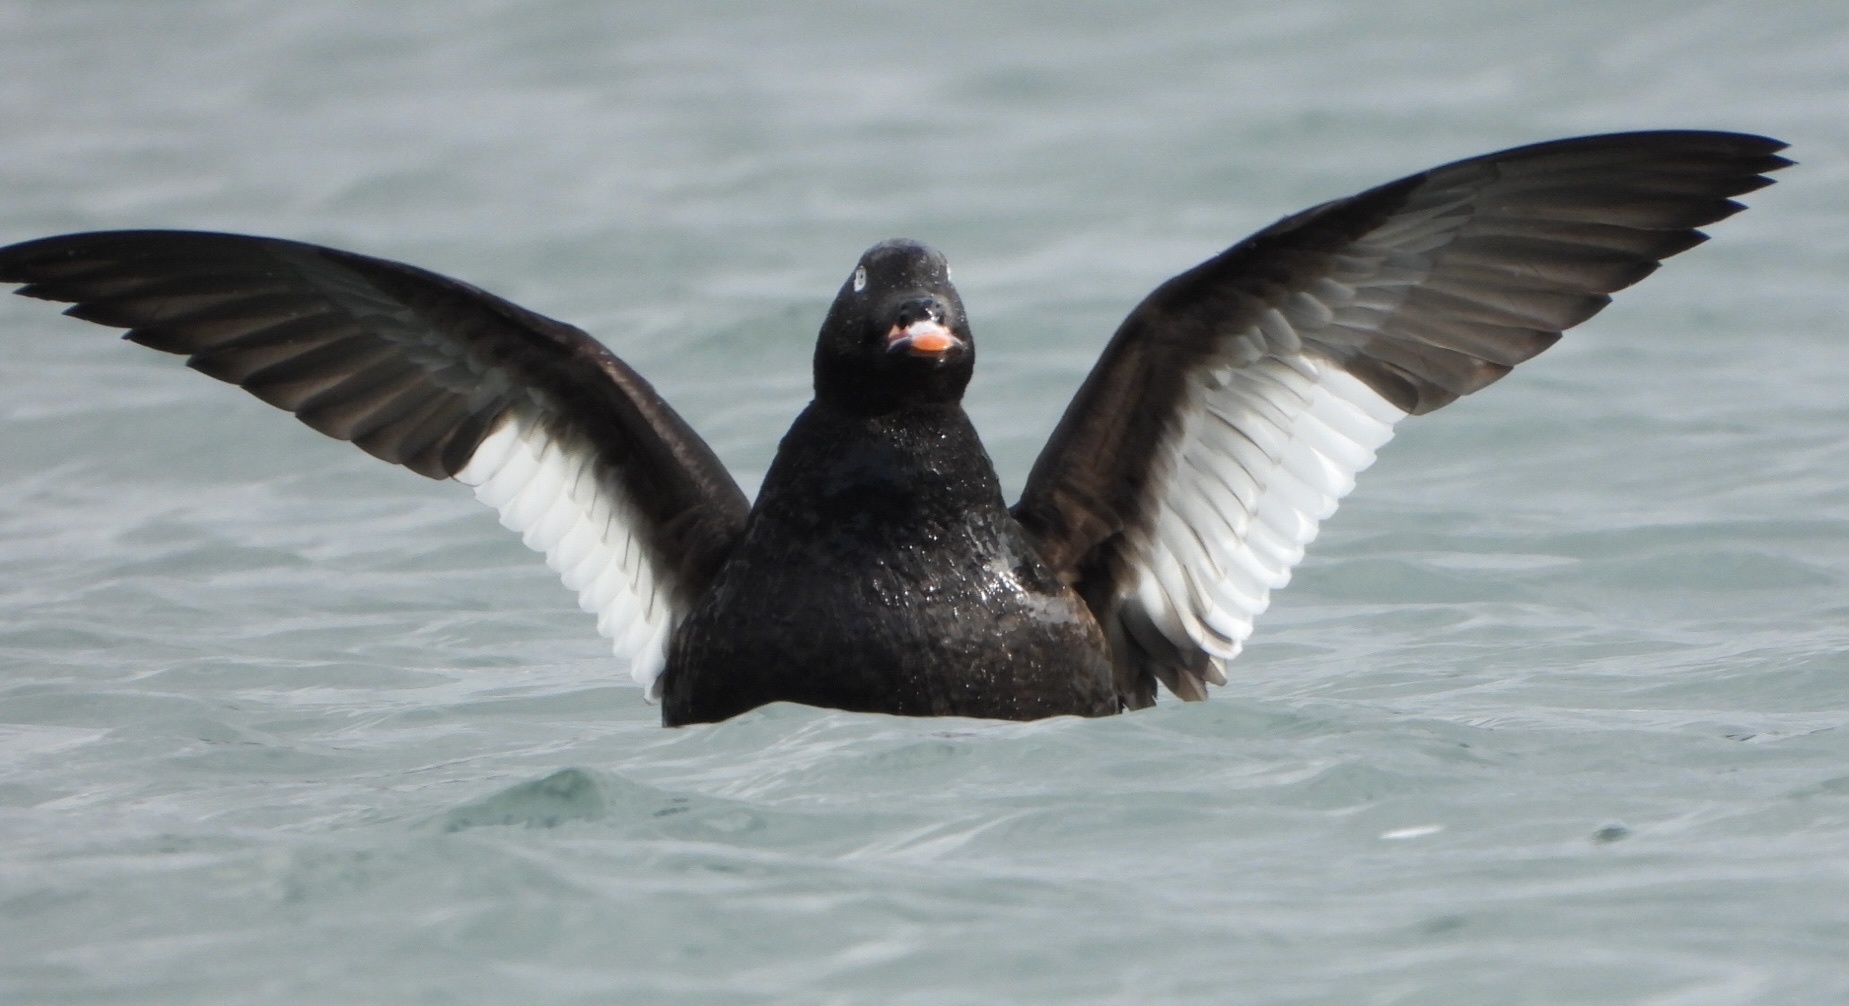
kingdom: Animalia
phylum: Chordata
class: Aves
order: Anseriformes
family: Anatidae
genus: Melanitta
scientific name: Melanitta deglandi
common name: White-winged scoter
